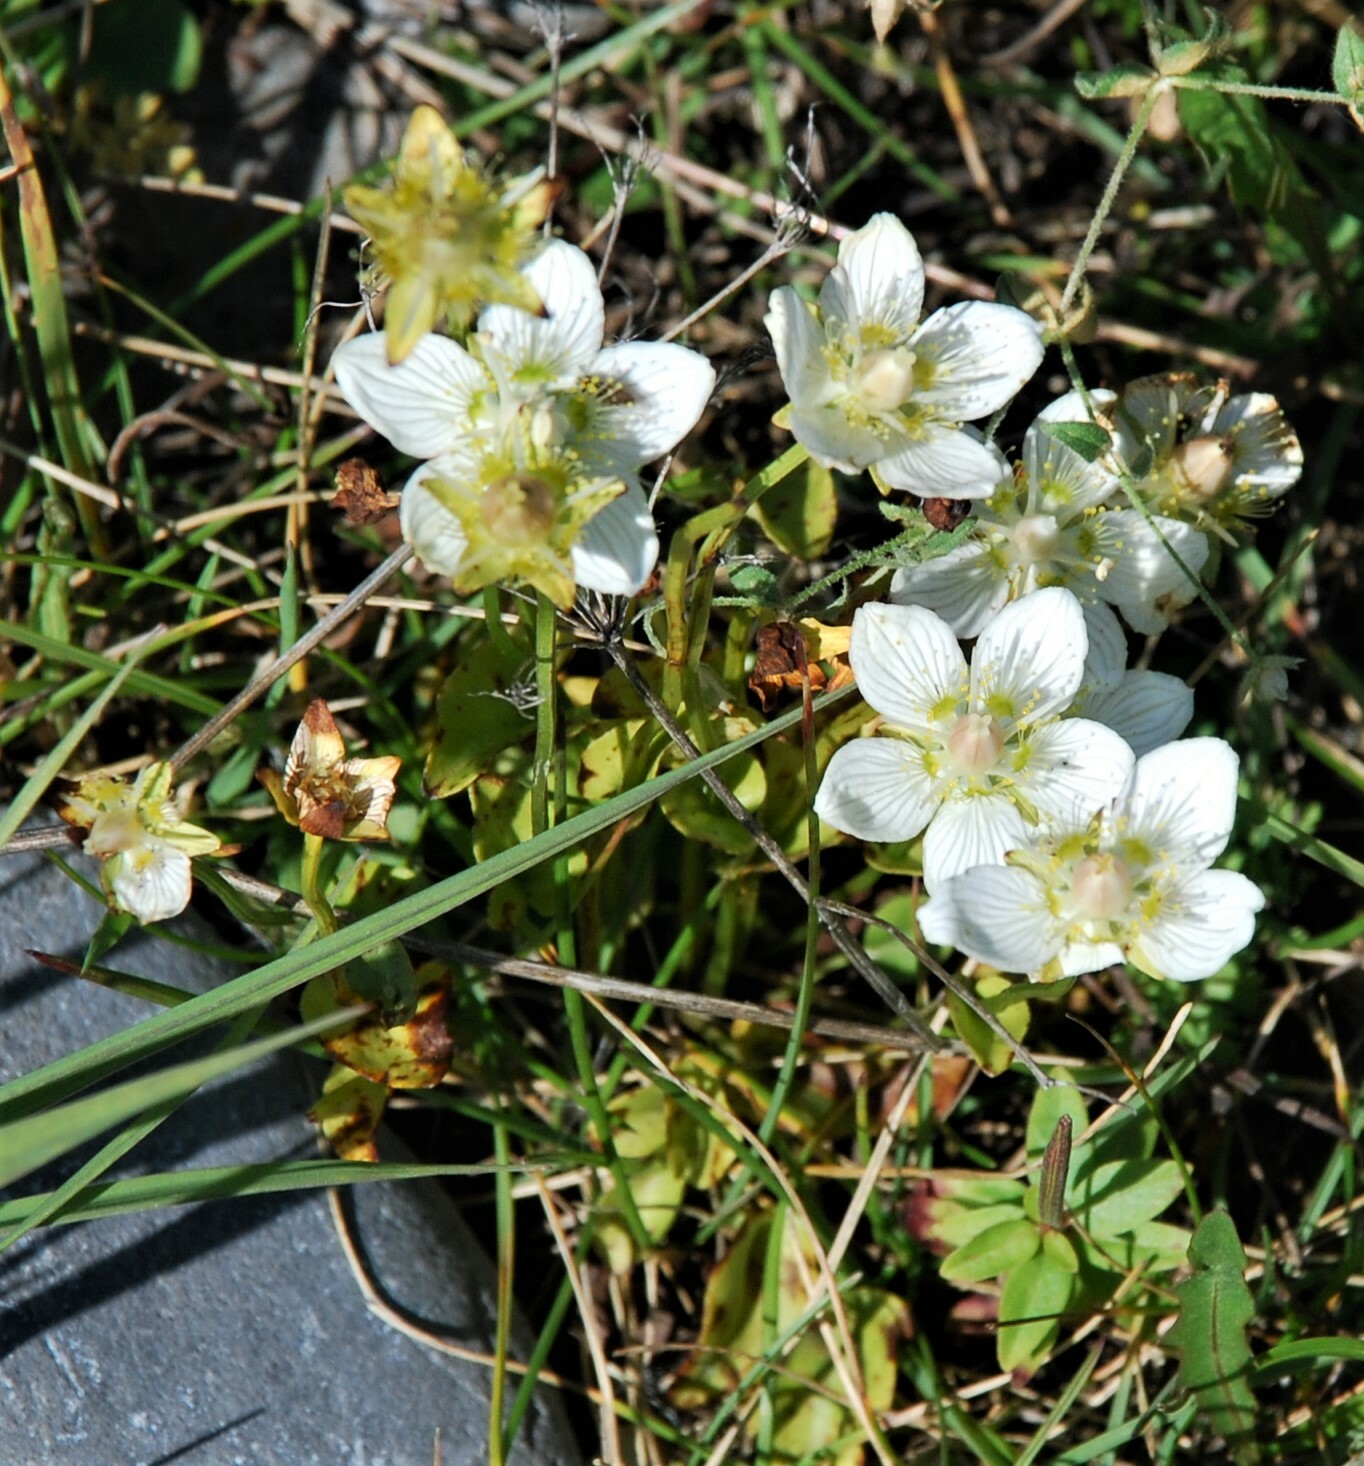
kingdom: Plantae
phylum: Tracheophyta
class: Magnoliopsida
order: Celastrales
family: Parnassiaceae
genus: Parnassia
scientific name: Parnassia palustris
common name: Grass-of-parnassus
